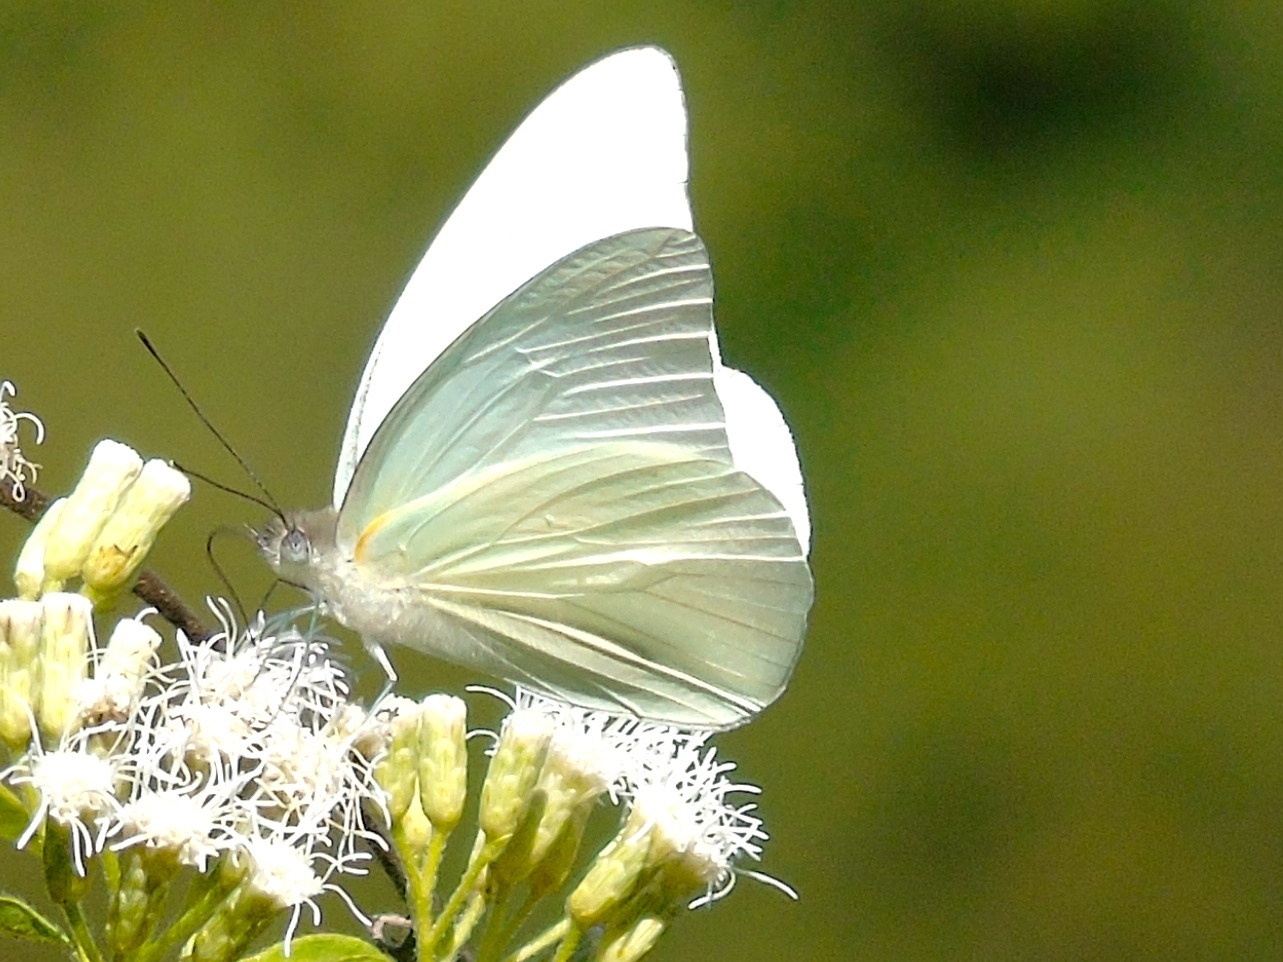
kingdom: Animalia
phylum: Arthropoda
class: Insecta
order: Lepidoptera
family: Pieridae
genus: Glutophrissa
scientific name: Glutophrissa drusilla
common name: Florida white
